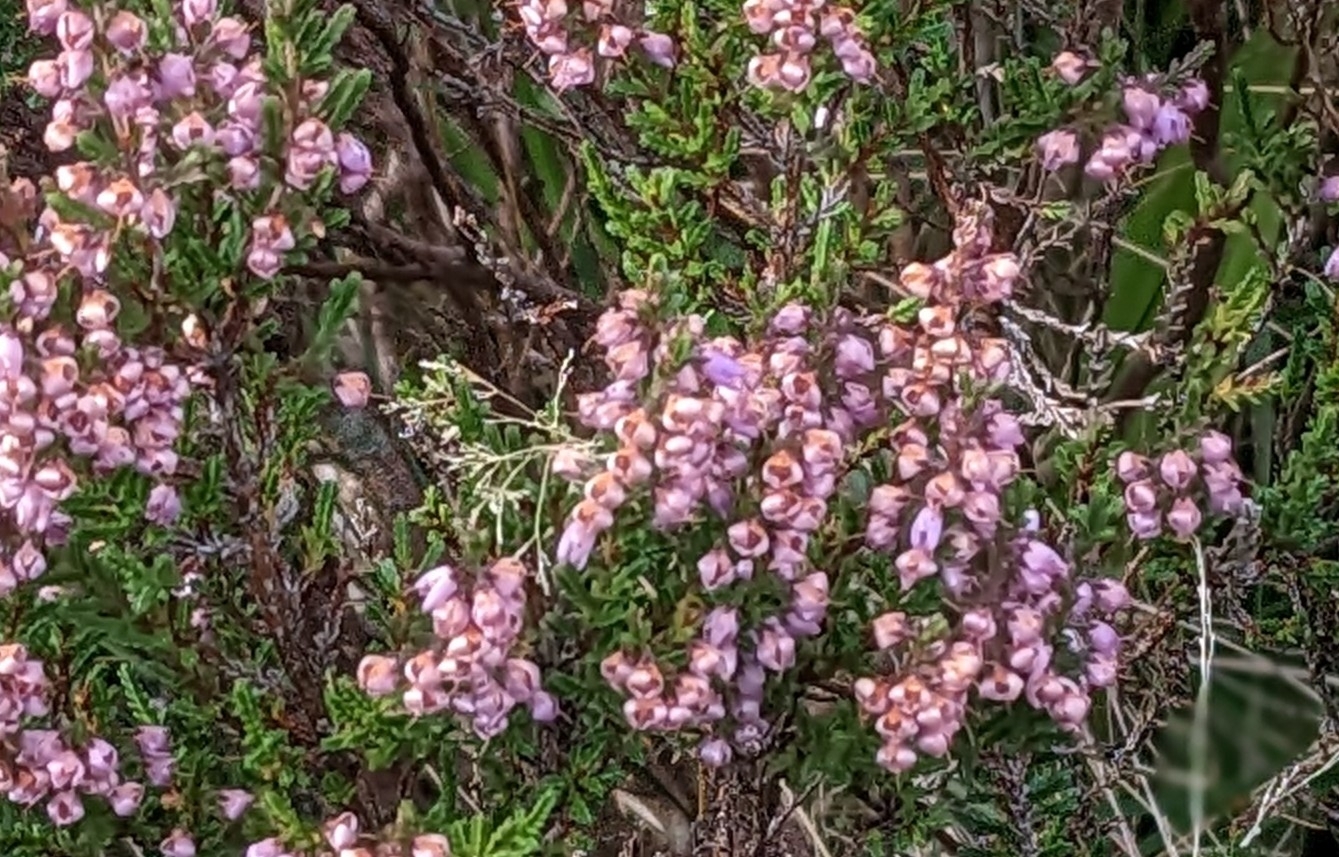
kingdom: Plantae
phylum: Tracheophyta
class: Magnoliopsida
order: Ericales
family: Ericaceae
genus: Calluna
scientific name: Calluna vulgaris
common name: Heather
